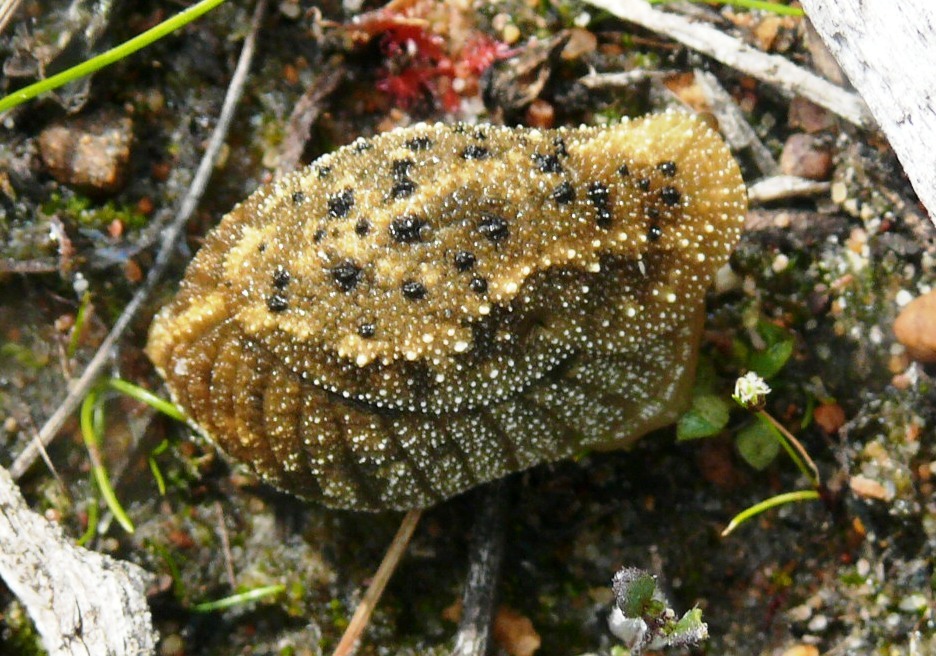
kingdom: Animalia
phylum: Mollusca
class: Gastropoda
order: Stylommatophora
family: Oopeltidae
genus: Oopelta
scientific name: Oopelta nigropunctata
